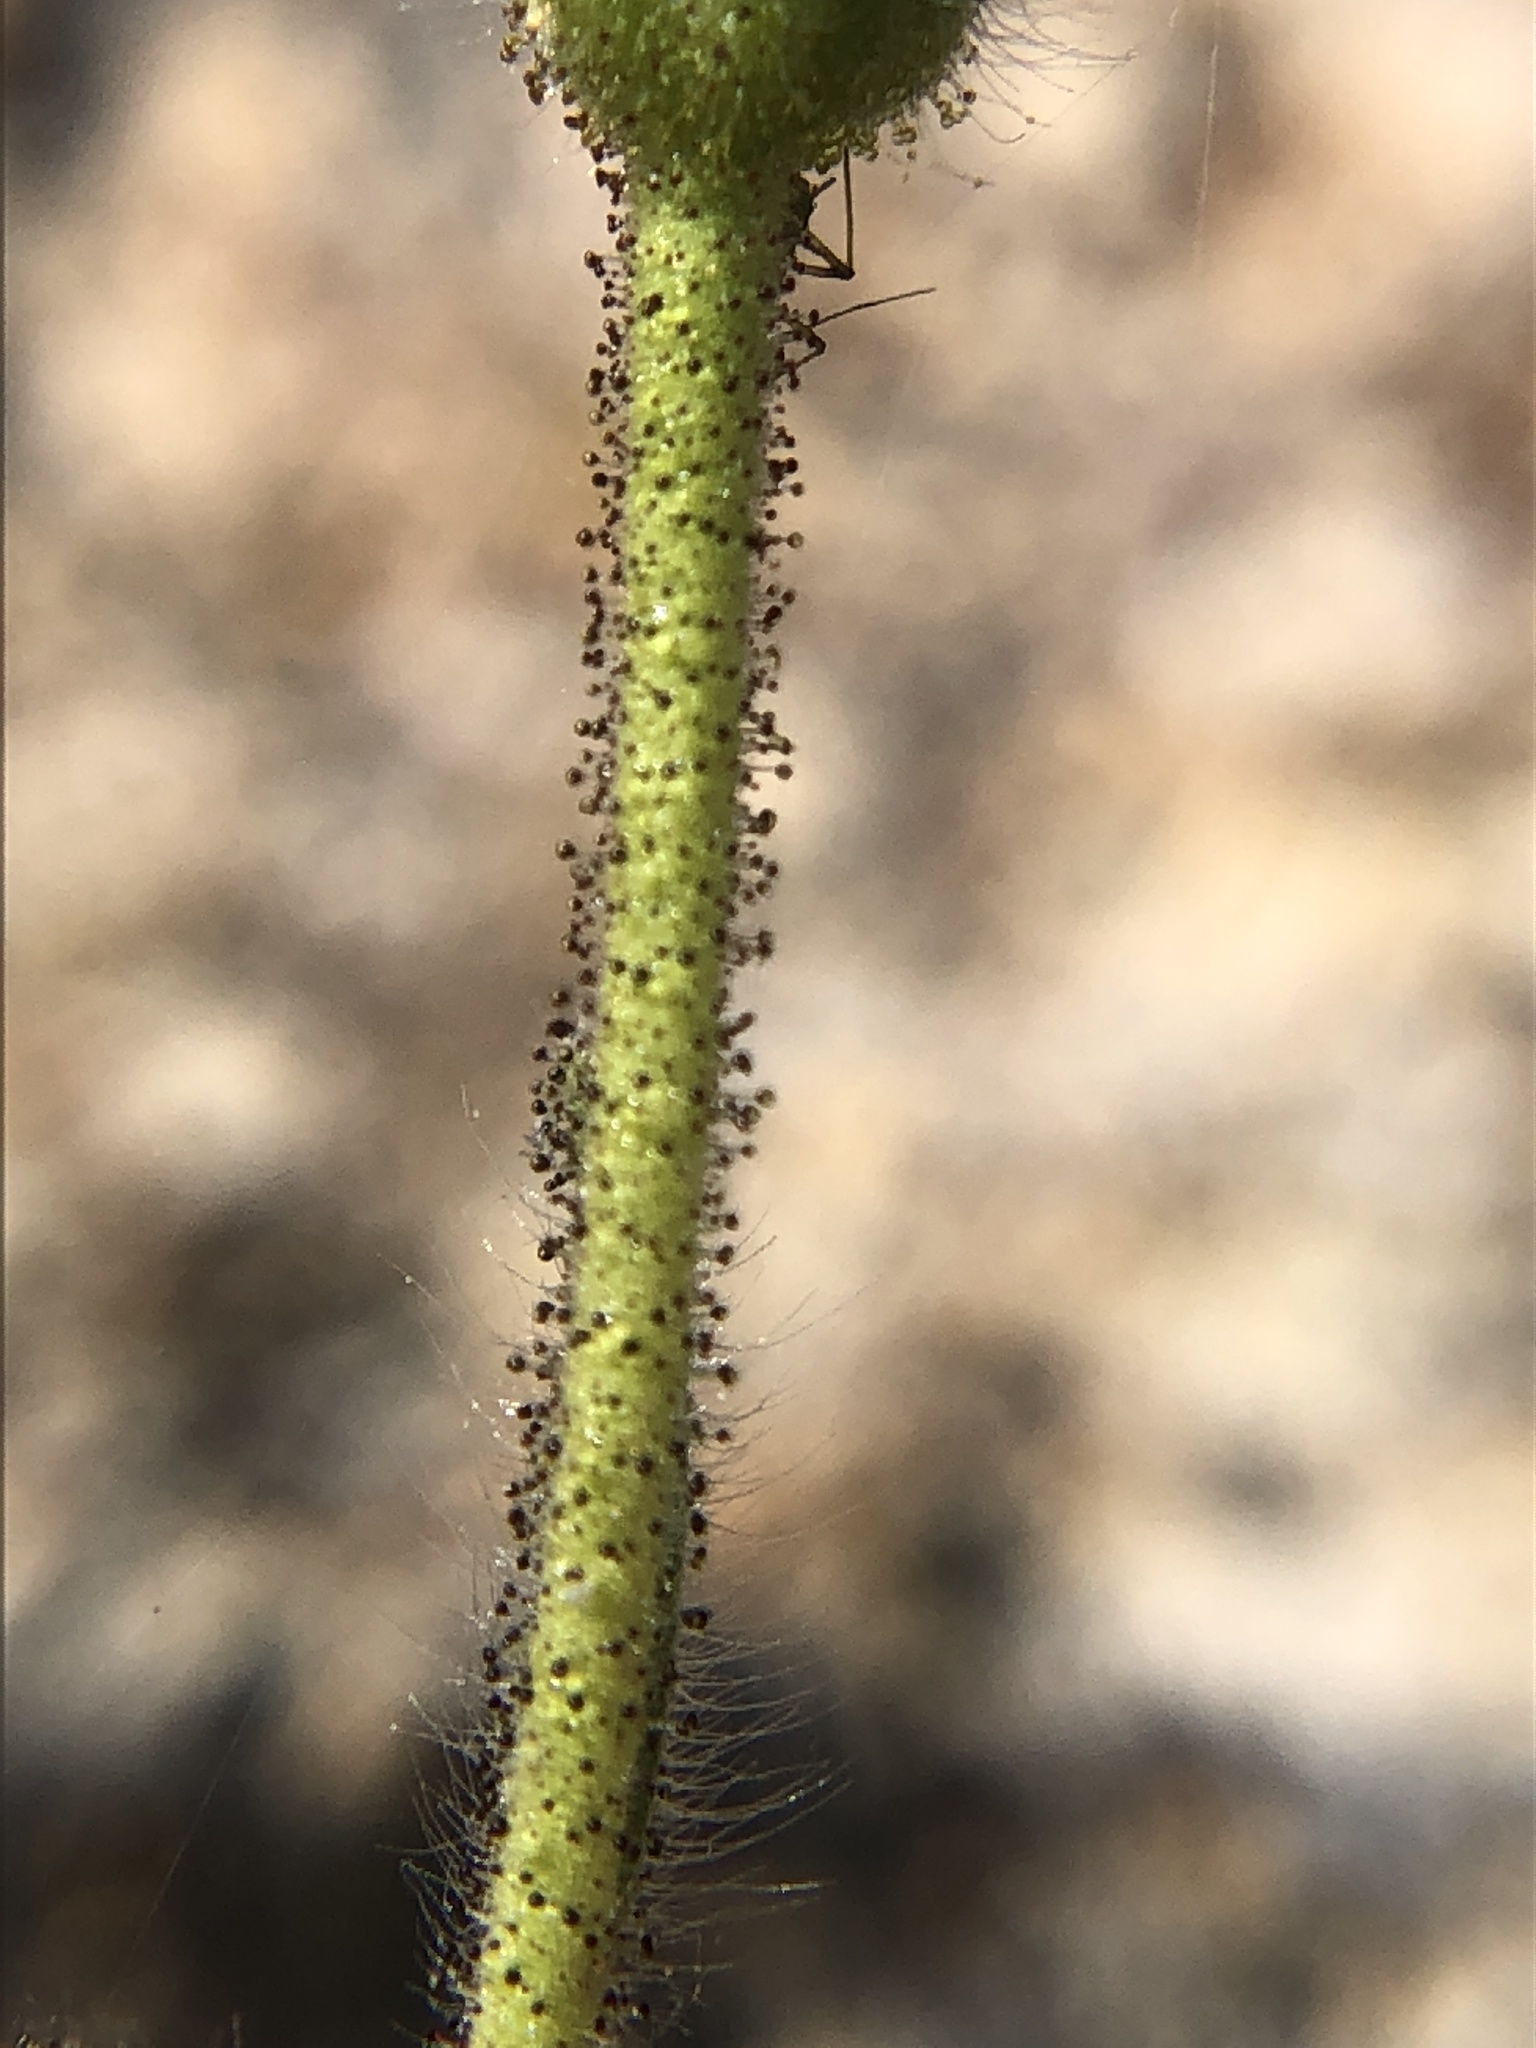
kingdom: Plantae
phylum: Tracheophyta
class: Magnoliopsida
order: Asterales
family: Asteraceae
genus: Carlquistia
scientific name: Carlquistia muirii
